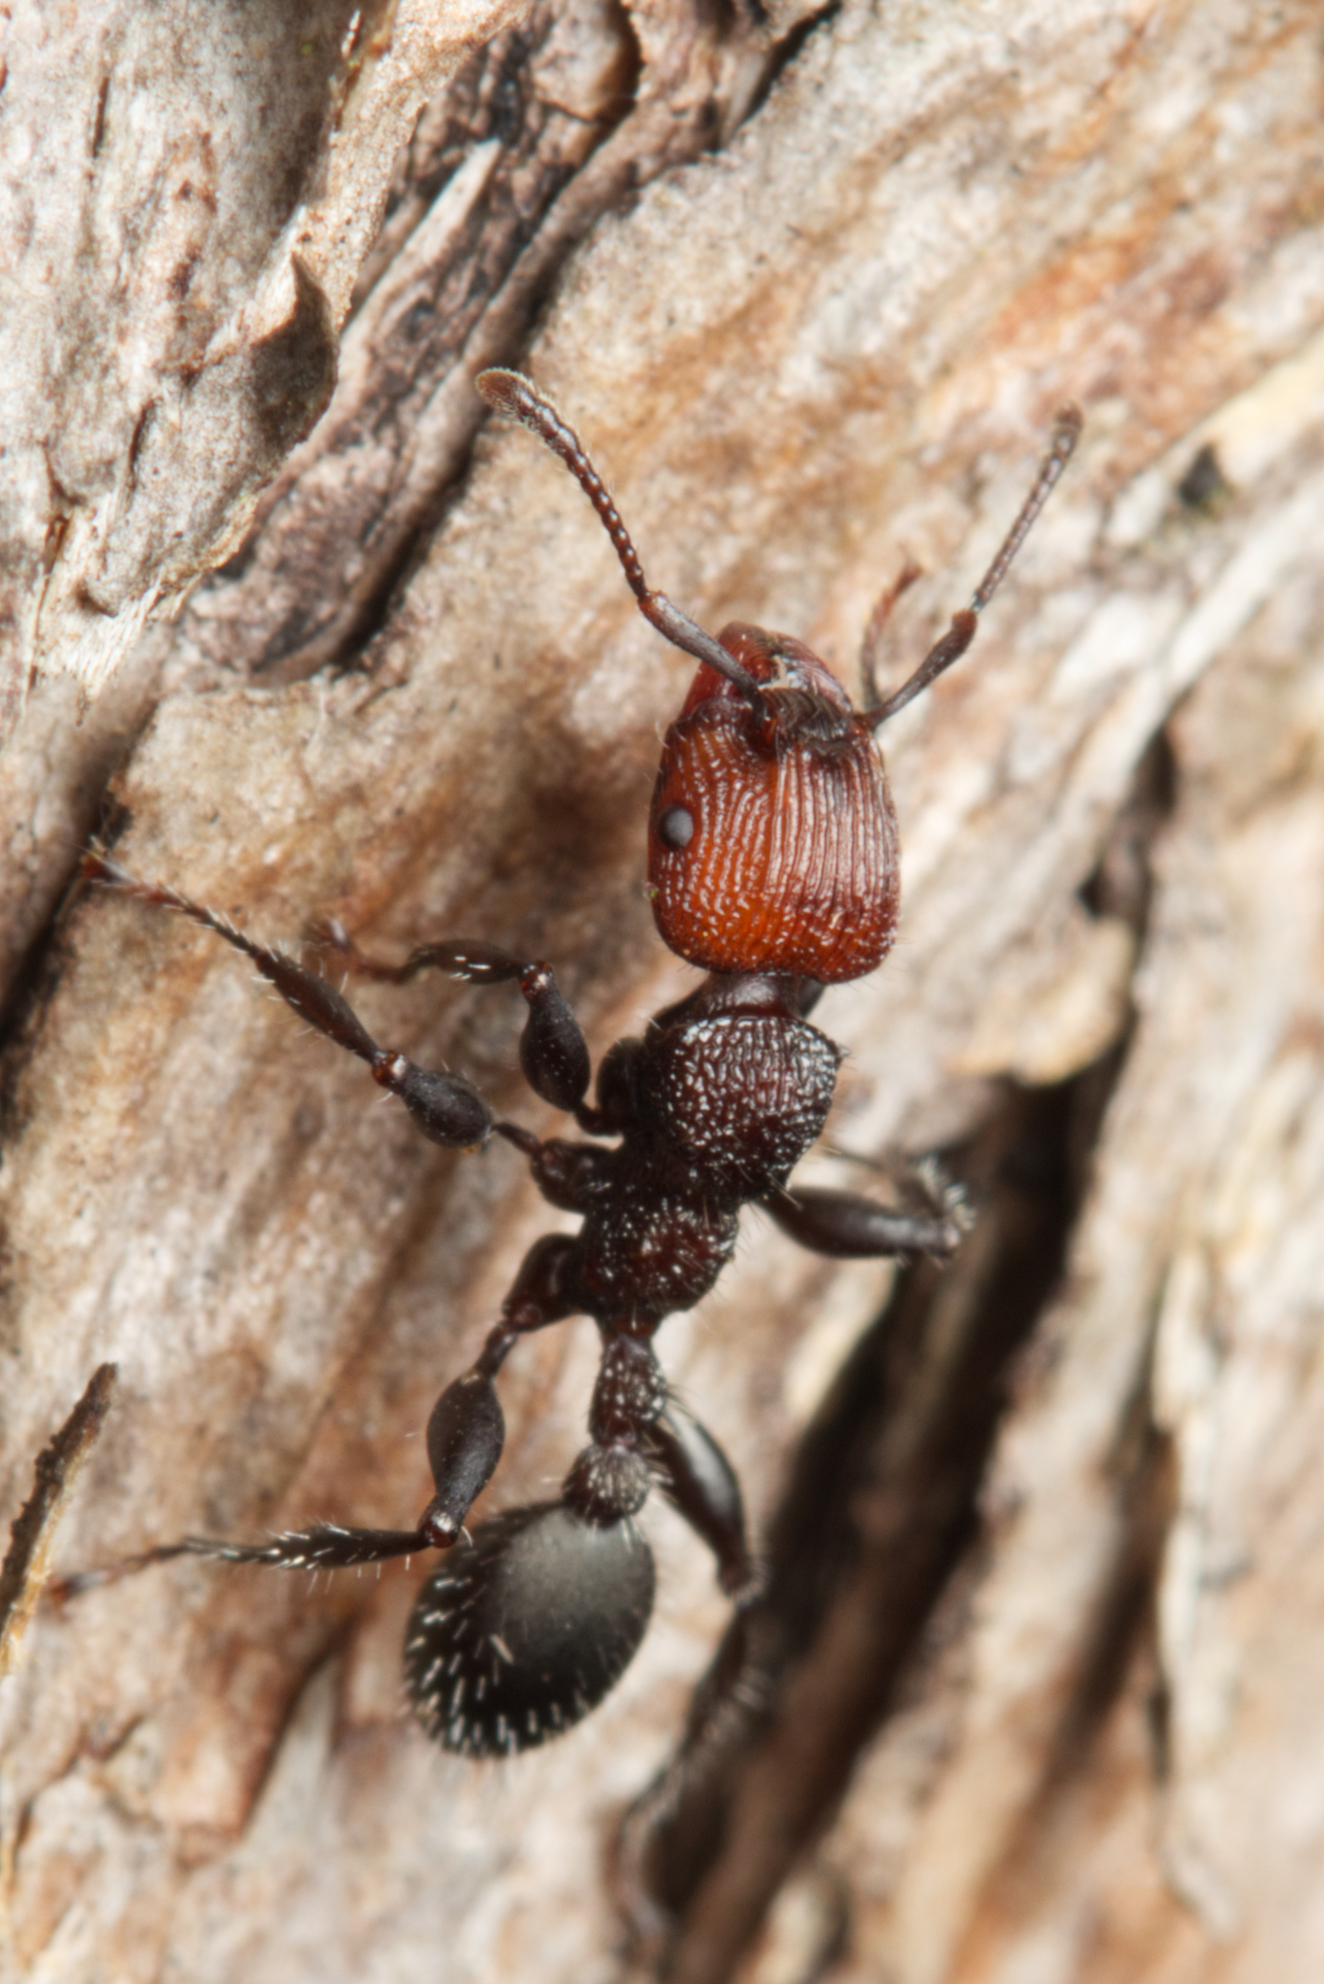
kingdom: Animalia
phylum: Arthropoda
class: Insecta
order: Hymenoptera
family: Formicidae
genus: Podomyrma
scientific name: Podomyrma micans
